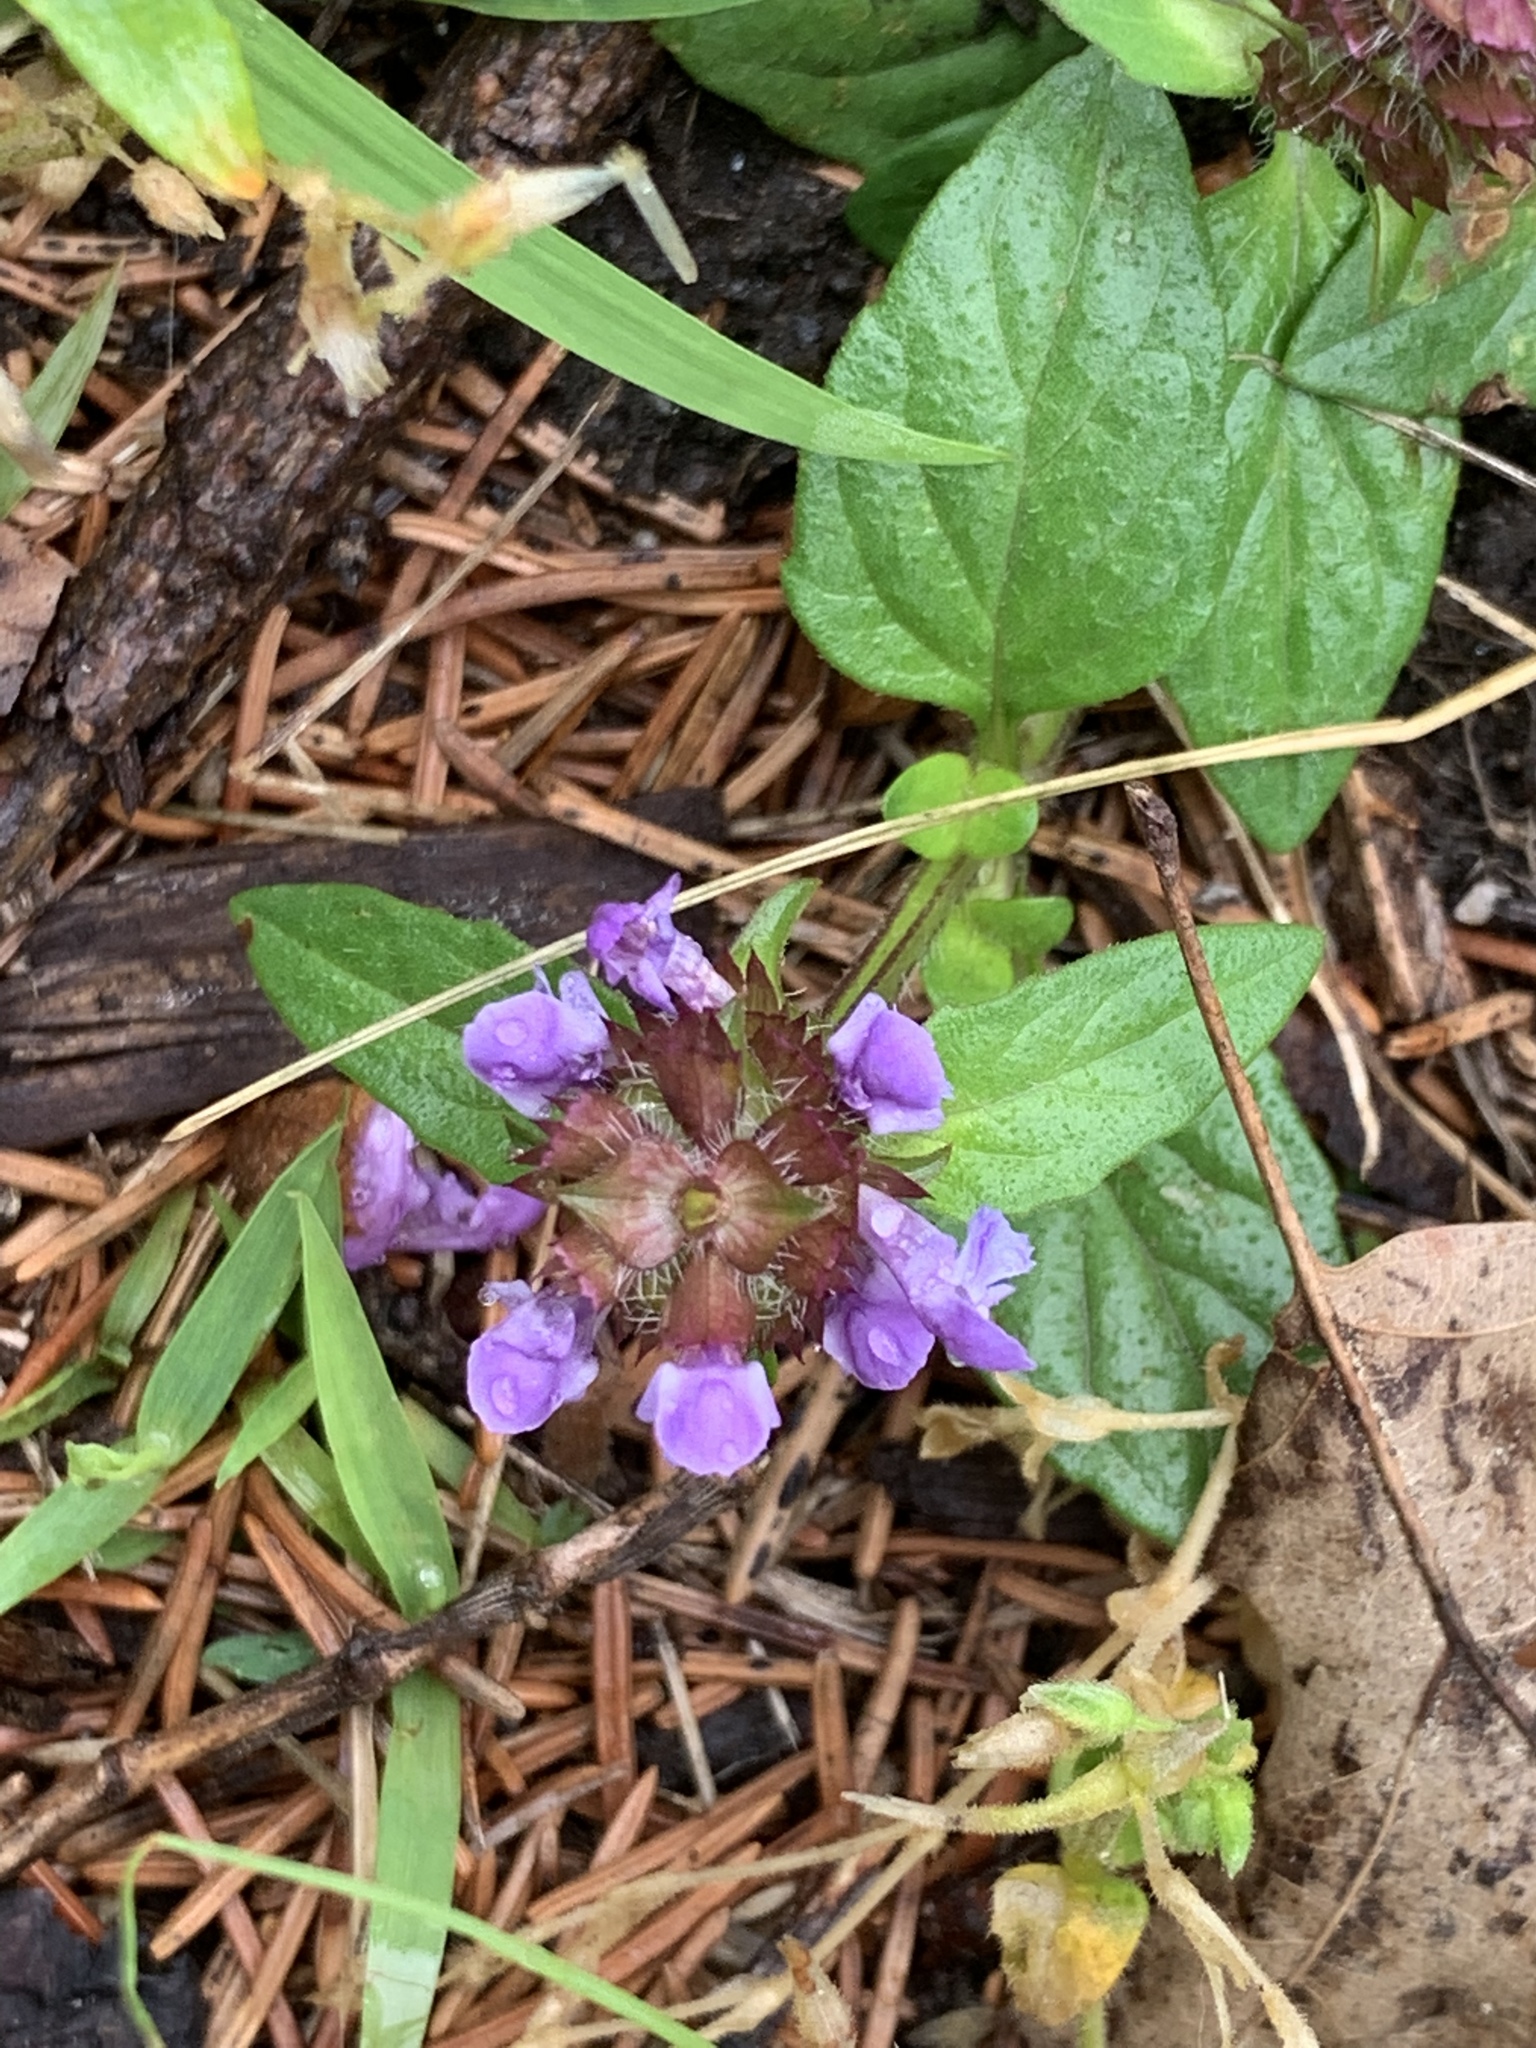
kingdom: Plantae
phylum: Tracheophyta
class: Magnoliopsida
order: Lamiales
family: Lamiaceae
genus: Prunella
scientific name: Prunella vulgaris
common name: Heal-all
